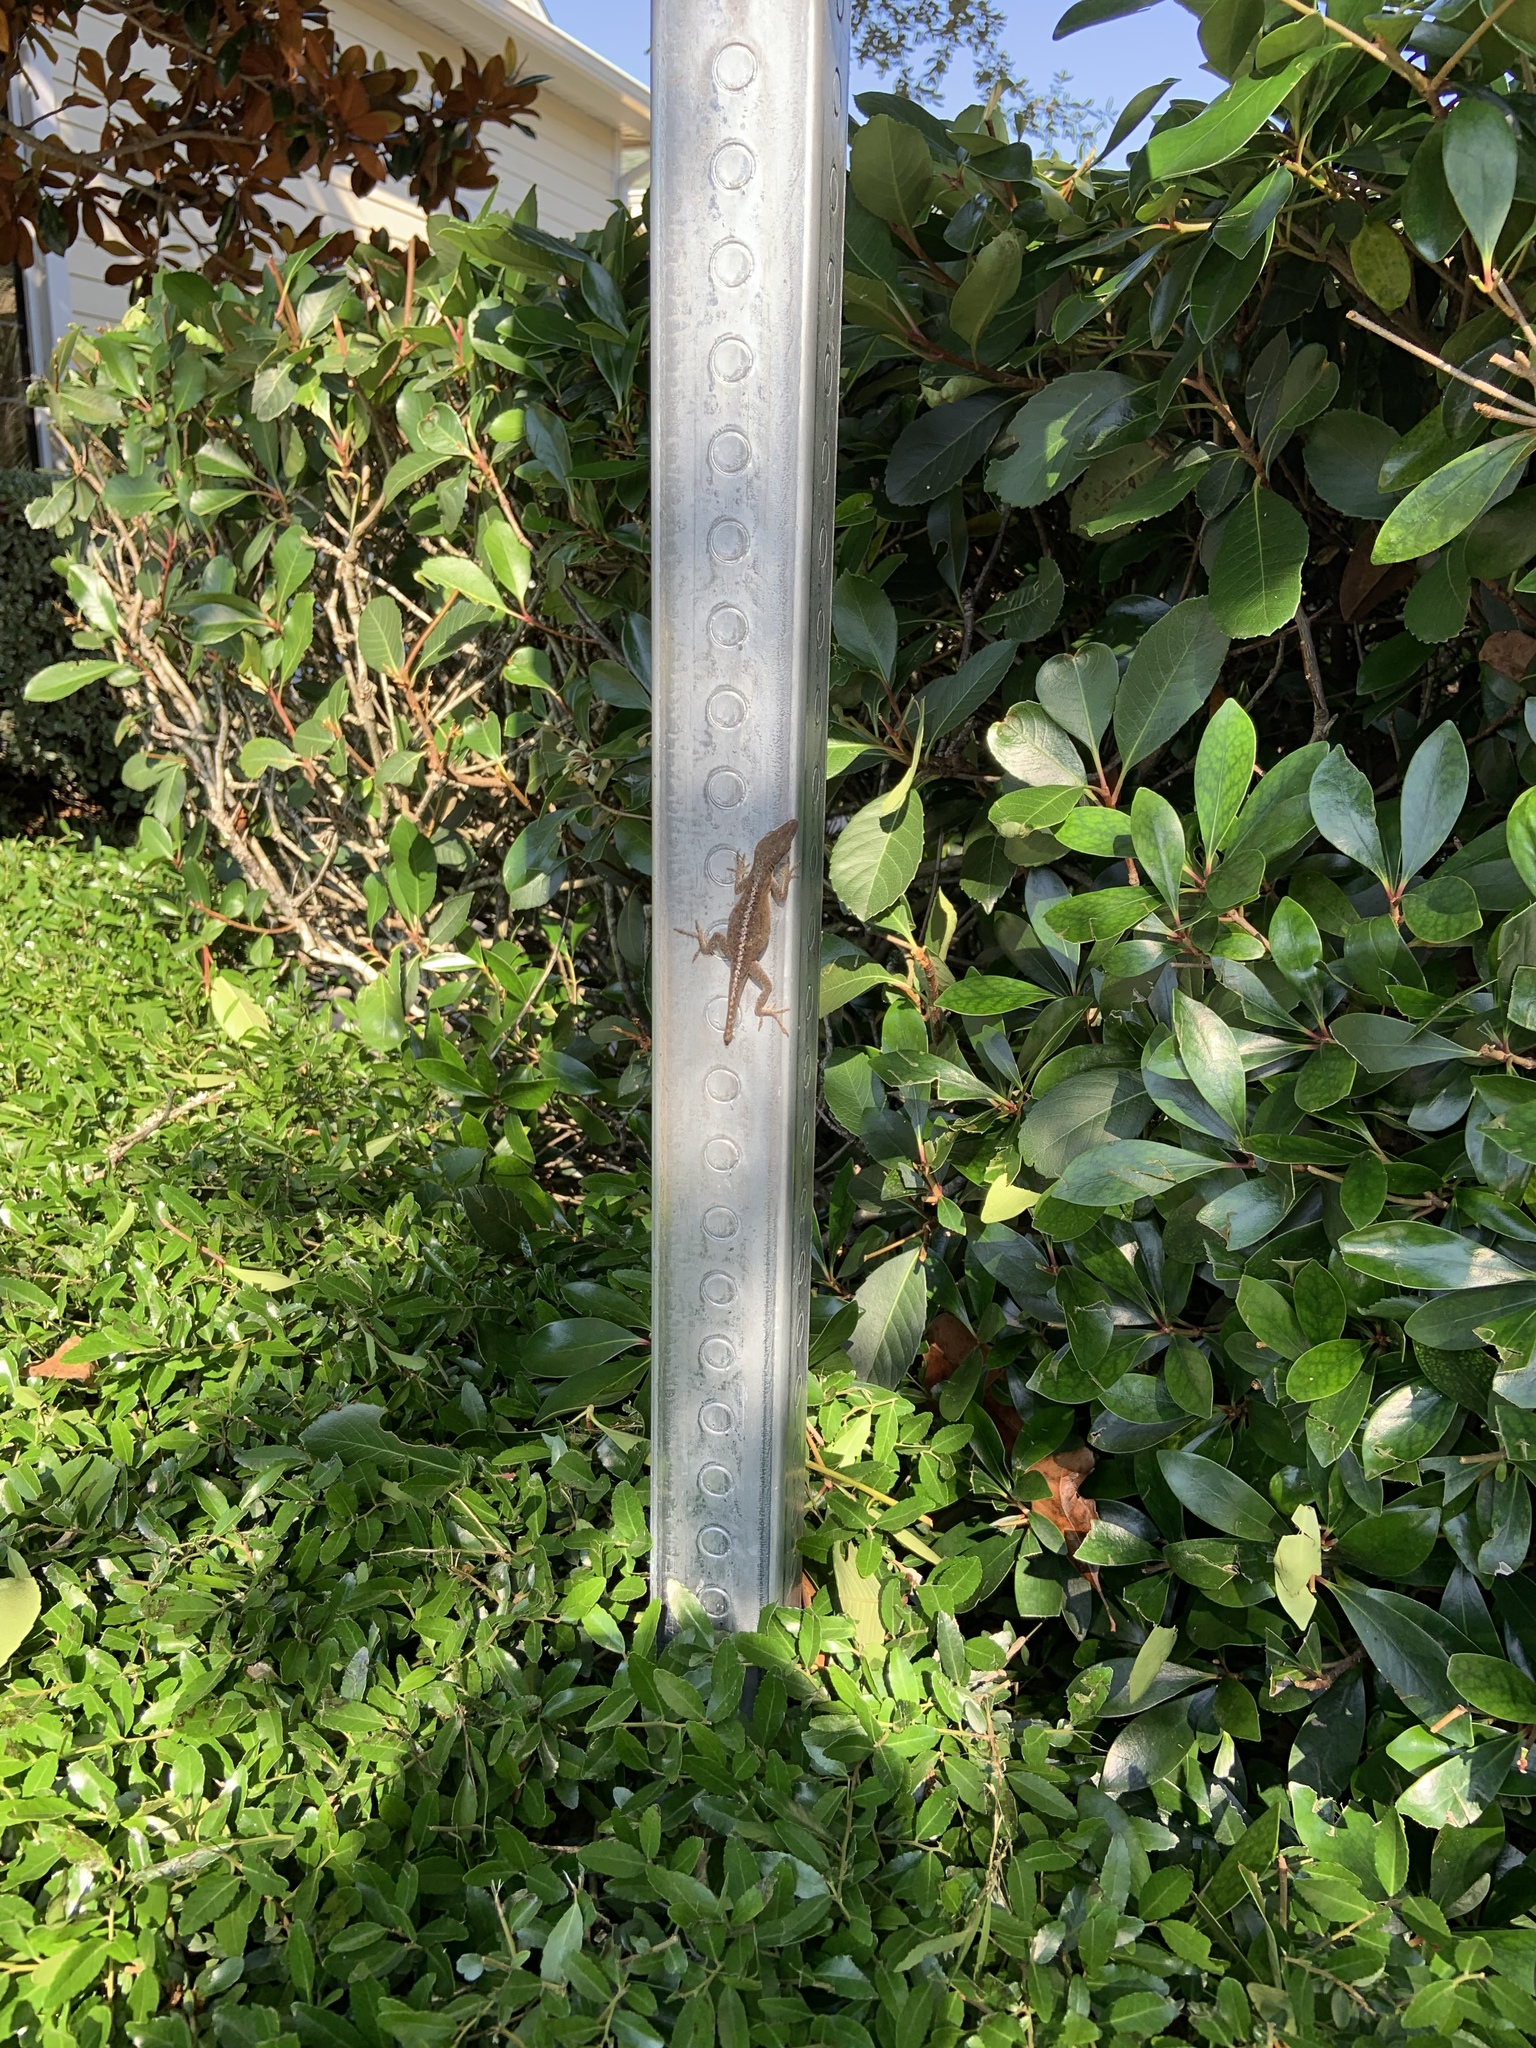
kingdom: Animalia
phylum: Chordata
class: Squamata
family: Dactyloidae
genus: Anolis
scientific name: Anolis carolinensis
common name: Green anole
